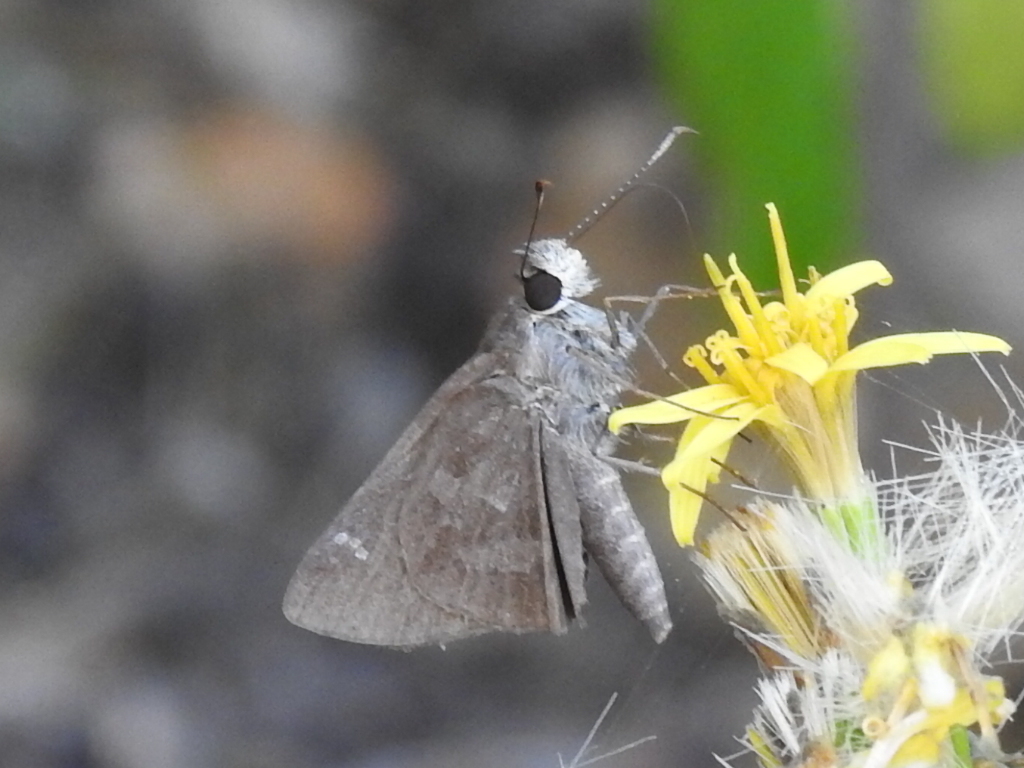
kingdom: Animalia
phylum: Arthropoda
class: Insecta
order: Lepidoptera
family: Hesperiidae
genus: Cymaenes
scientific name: Cymaenes
